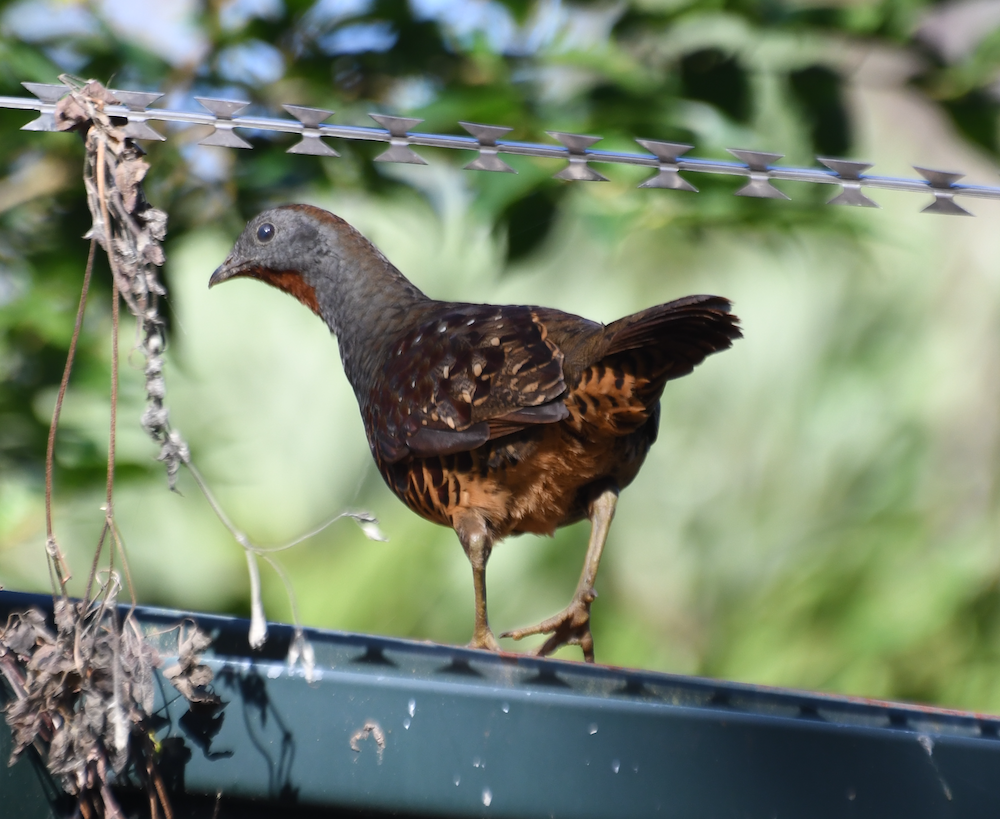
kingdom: Animalia
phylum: Chordata
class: Aves
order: Galliformes
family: Phasianidae
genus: Bambusicola
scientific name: Bambusicola sonorivox
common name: Taiwan bamboo-partridge
